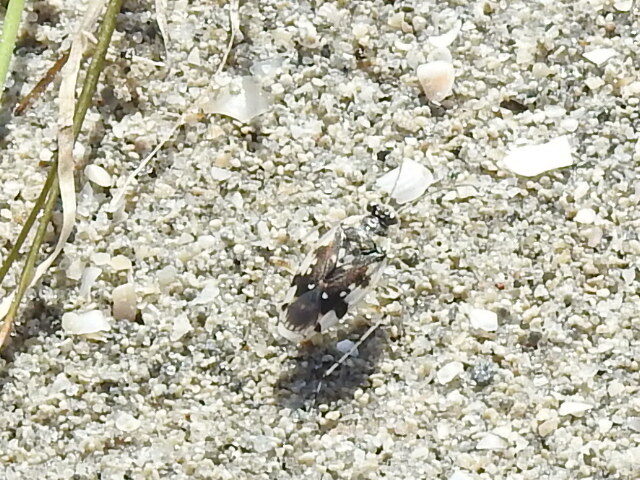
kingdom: Animalia
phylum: Arthropoda
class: Insecta
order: Hemiptera
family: Saldidae
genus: Pentacora
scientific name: Pentacora signoreti
